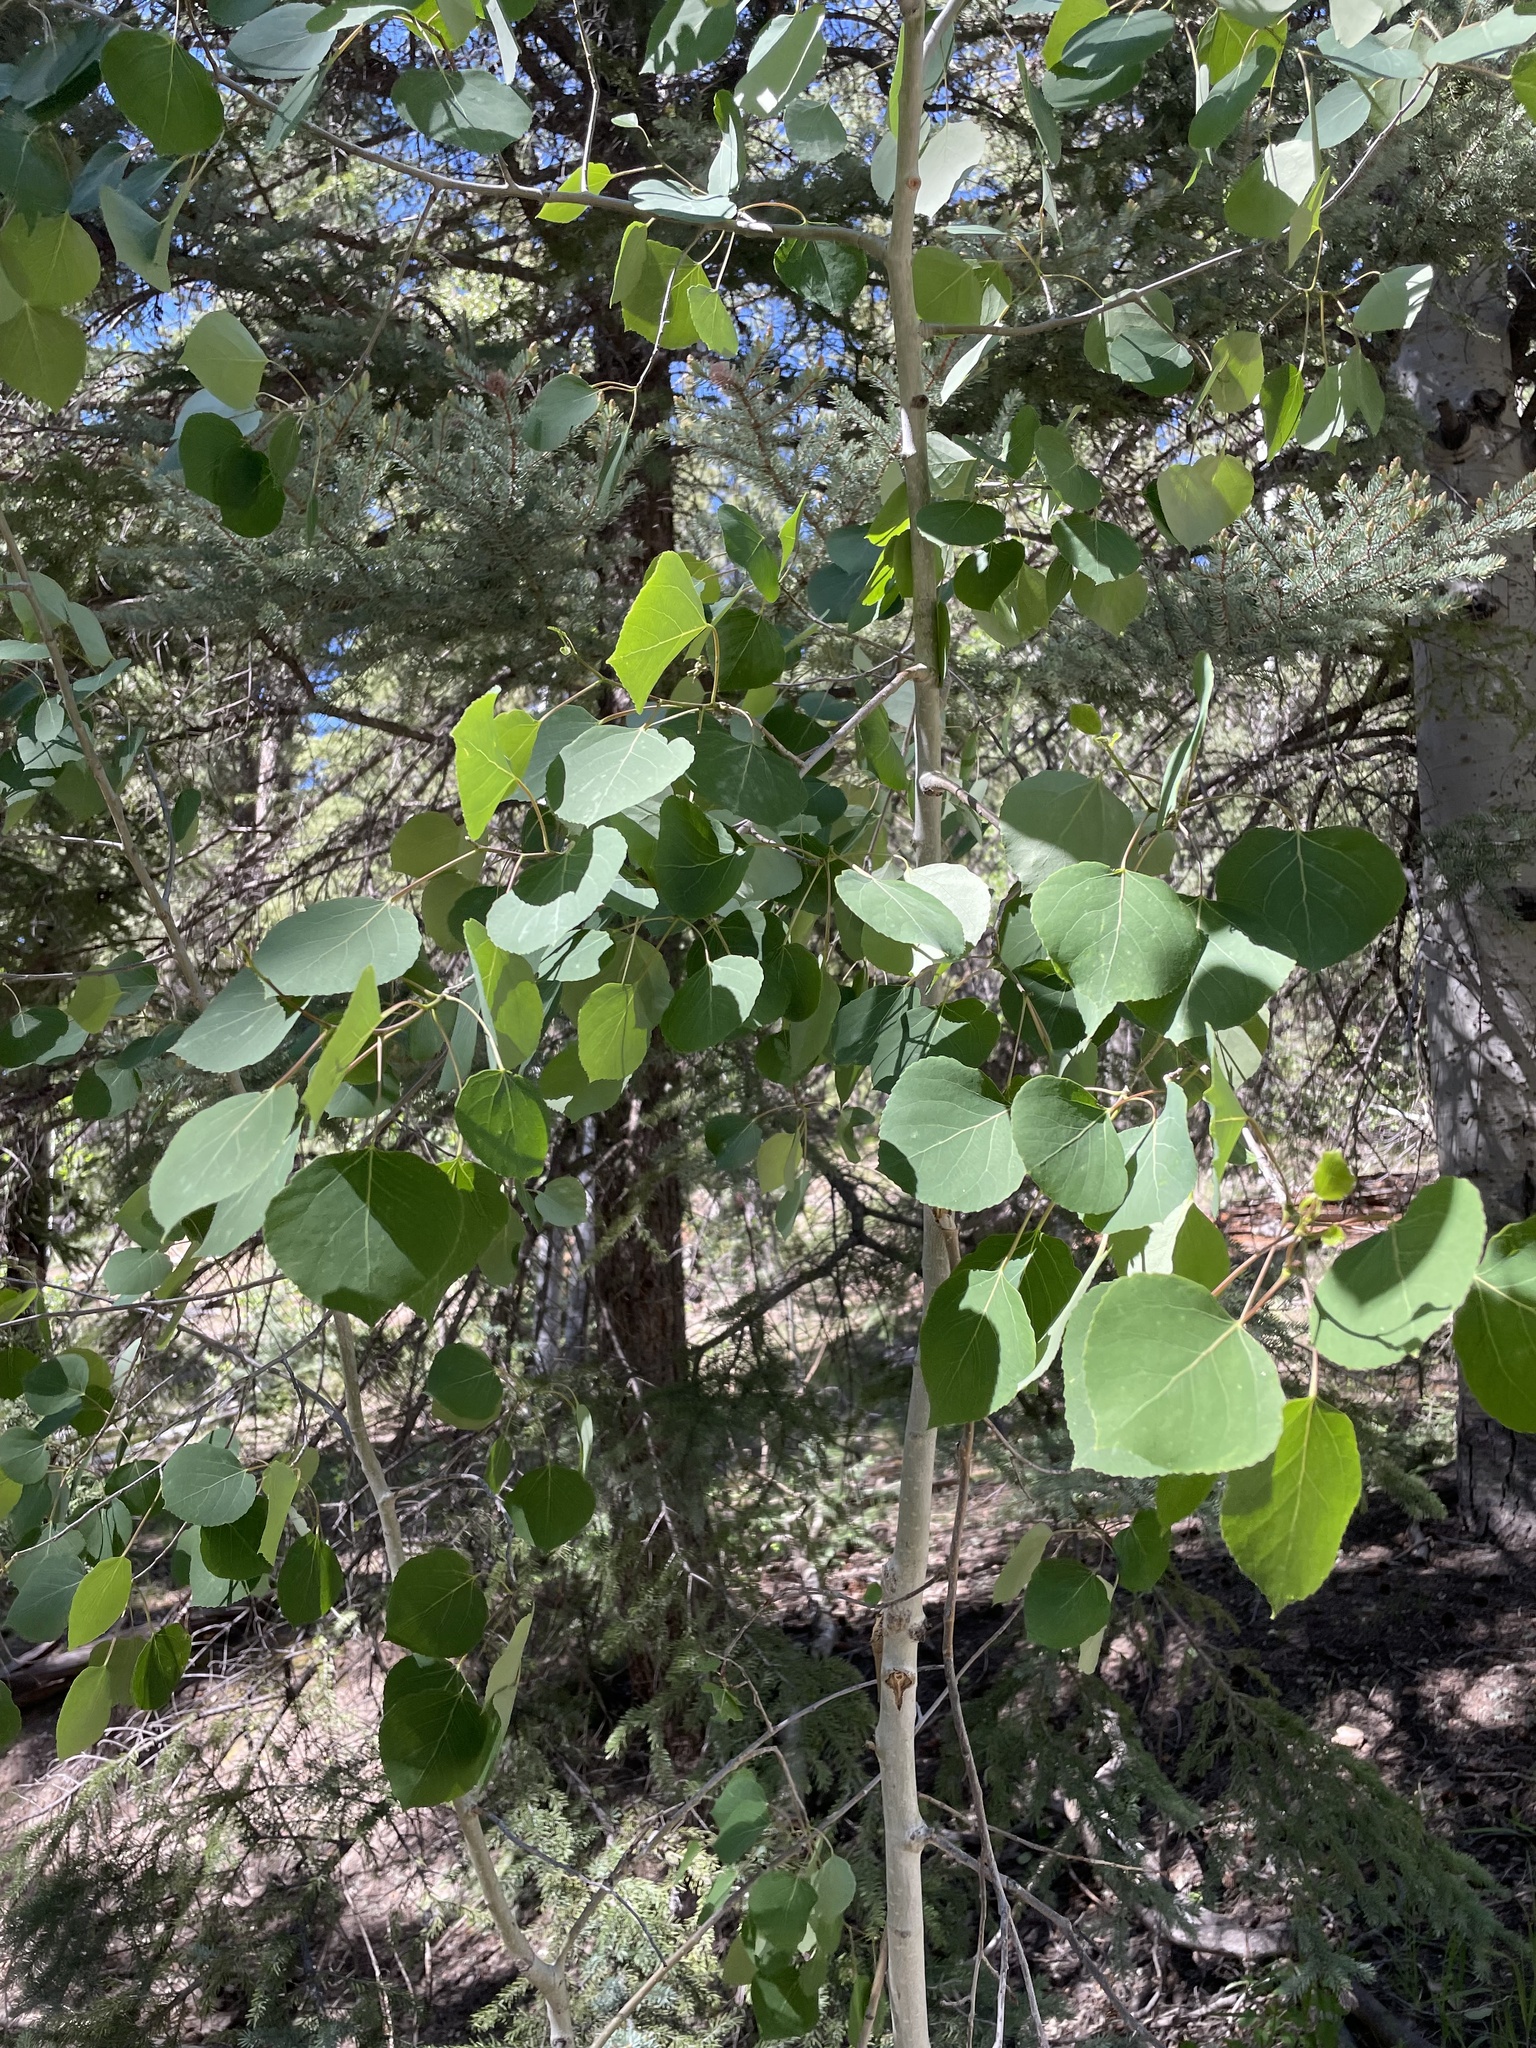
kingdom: Plantae
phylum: Tracheophyta
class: Magnoliopsida
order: Malpighiales
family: Salicaceae
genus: Populus
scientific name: Populus tremuloides
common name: Quaking aspen
